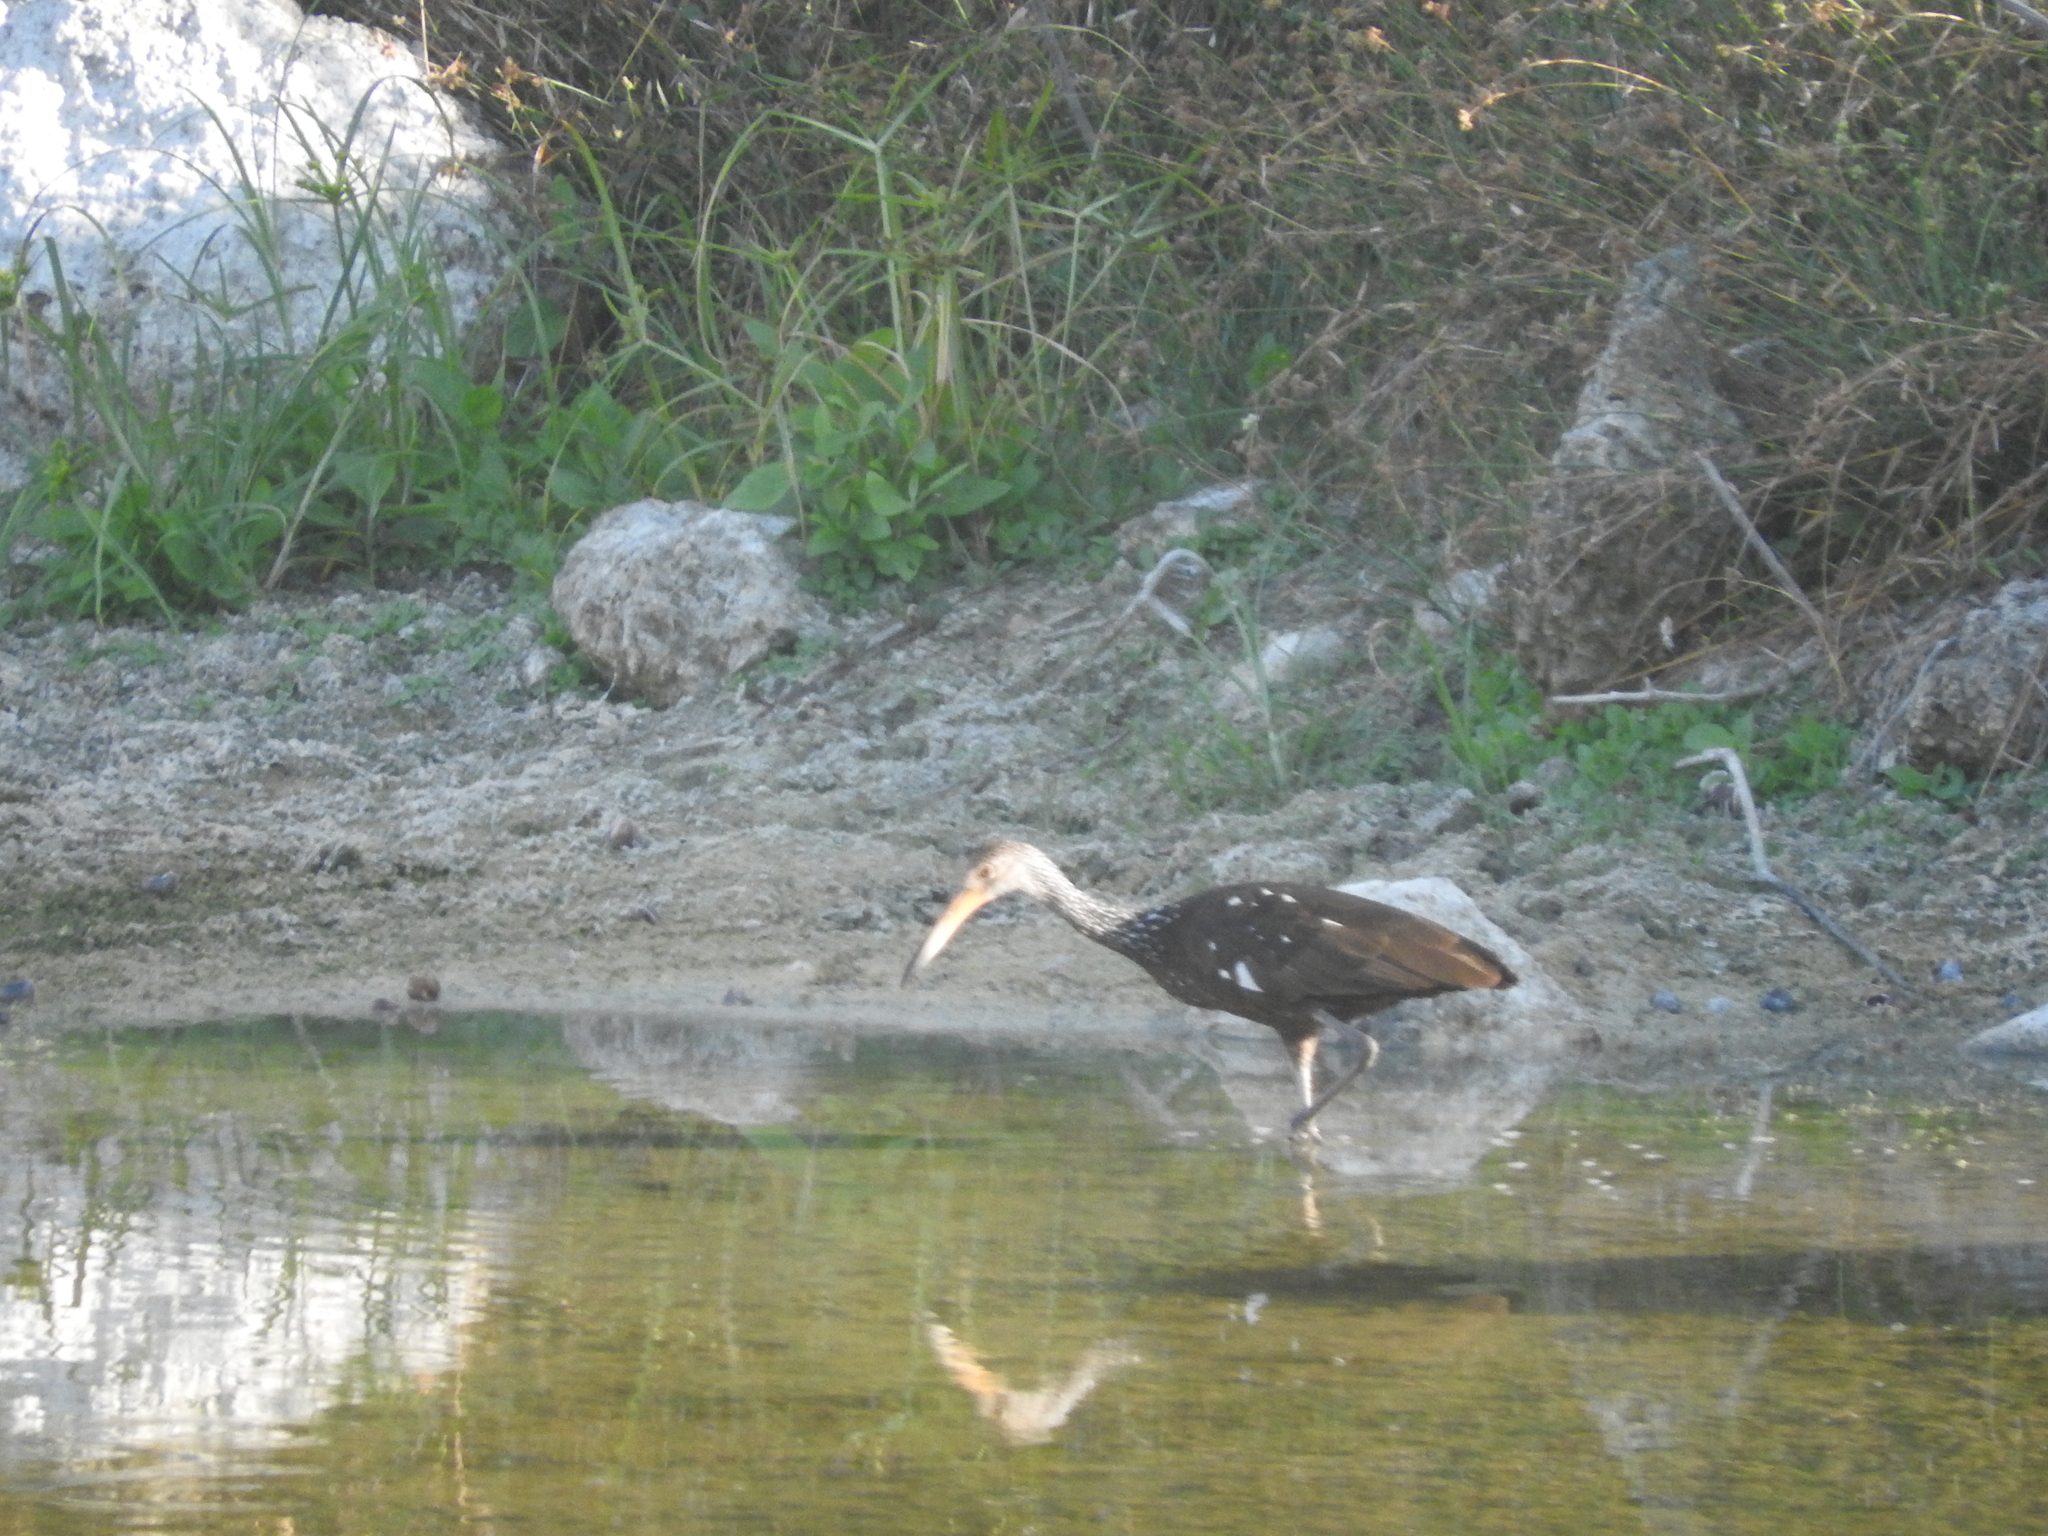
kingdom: Animalia
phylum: Chordata
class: Aves
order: Gruiformes
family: Aramidae
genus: Aramus
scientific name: Aramus guarauna
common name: Limpkin
